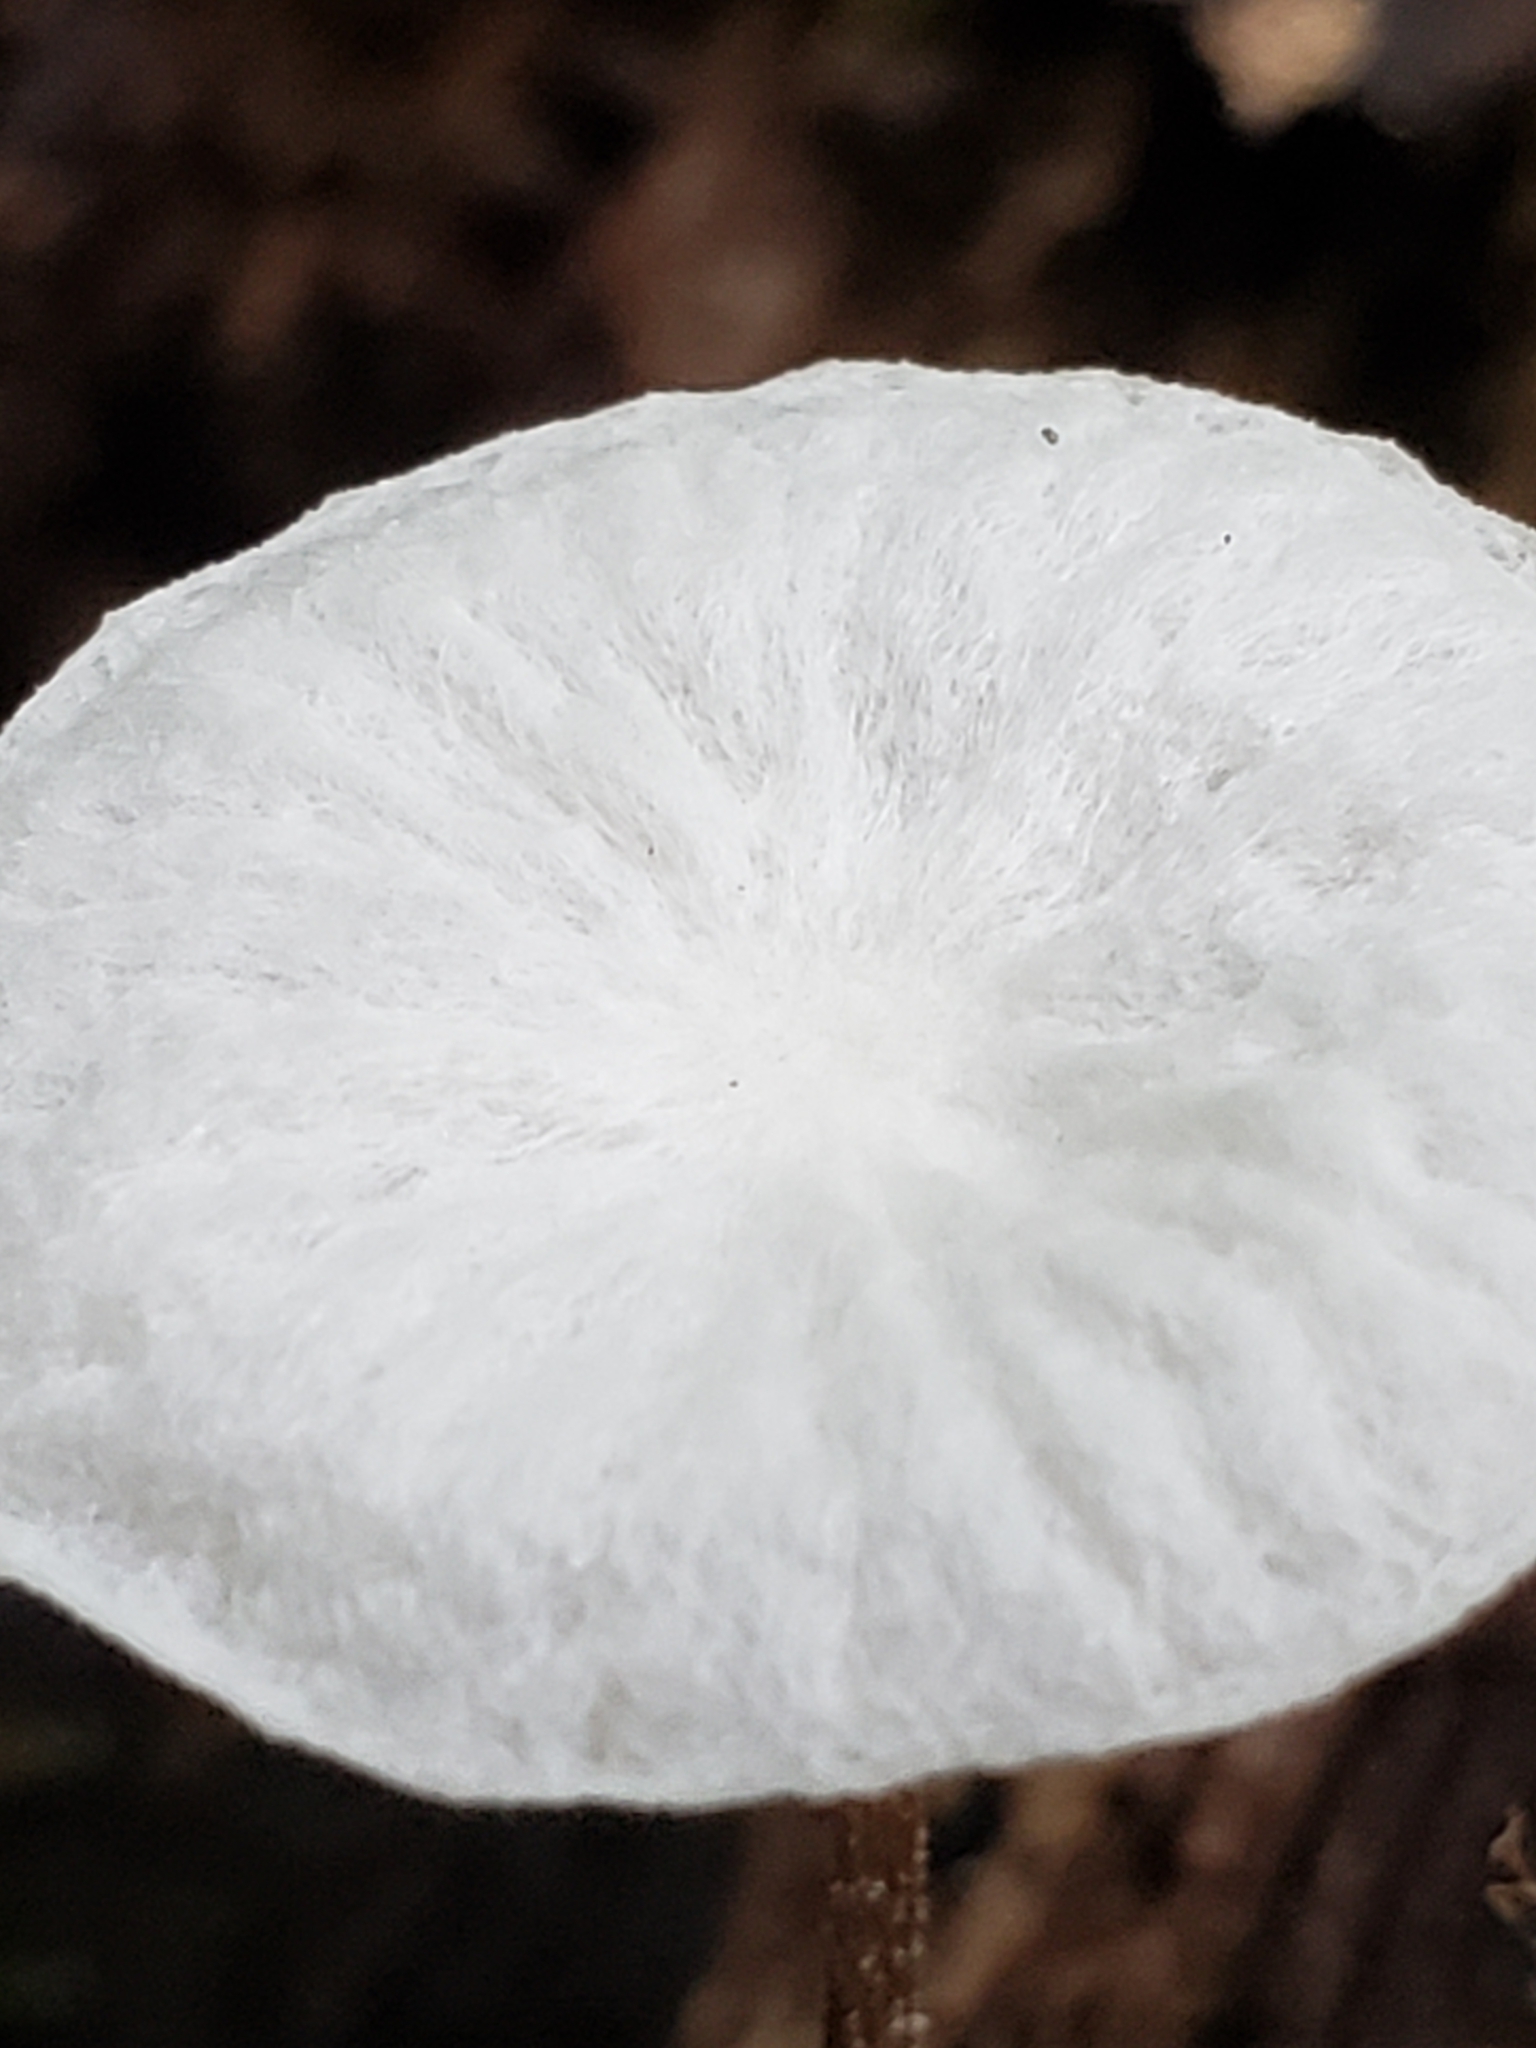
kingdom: Fungi
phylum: Basidiomycota
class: Agaricomycetes
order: Agaricales
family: Marasmiaceae
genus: Tetrapyrgos
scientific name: Tetrapyrgos nigripes
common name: Black-stalked marasmius
